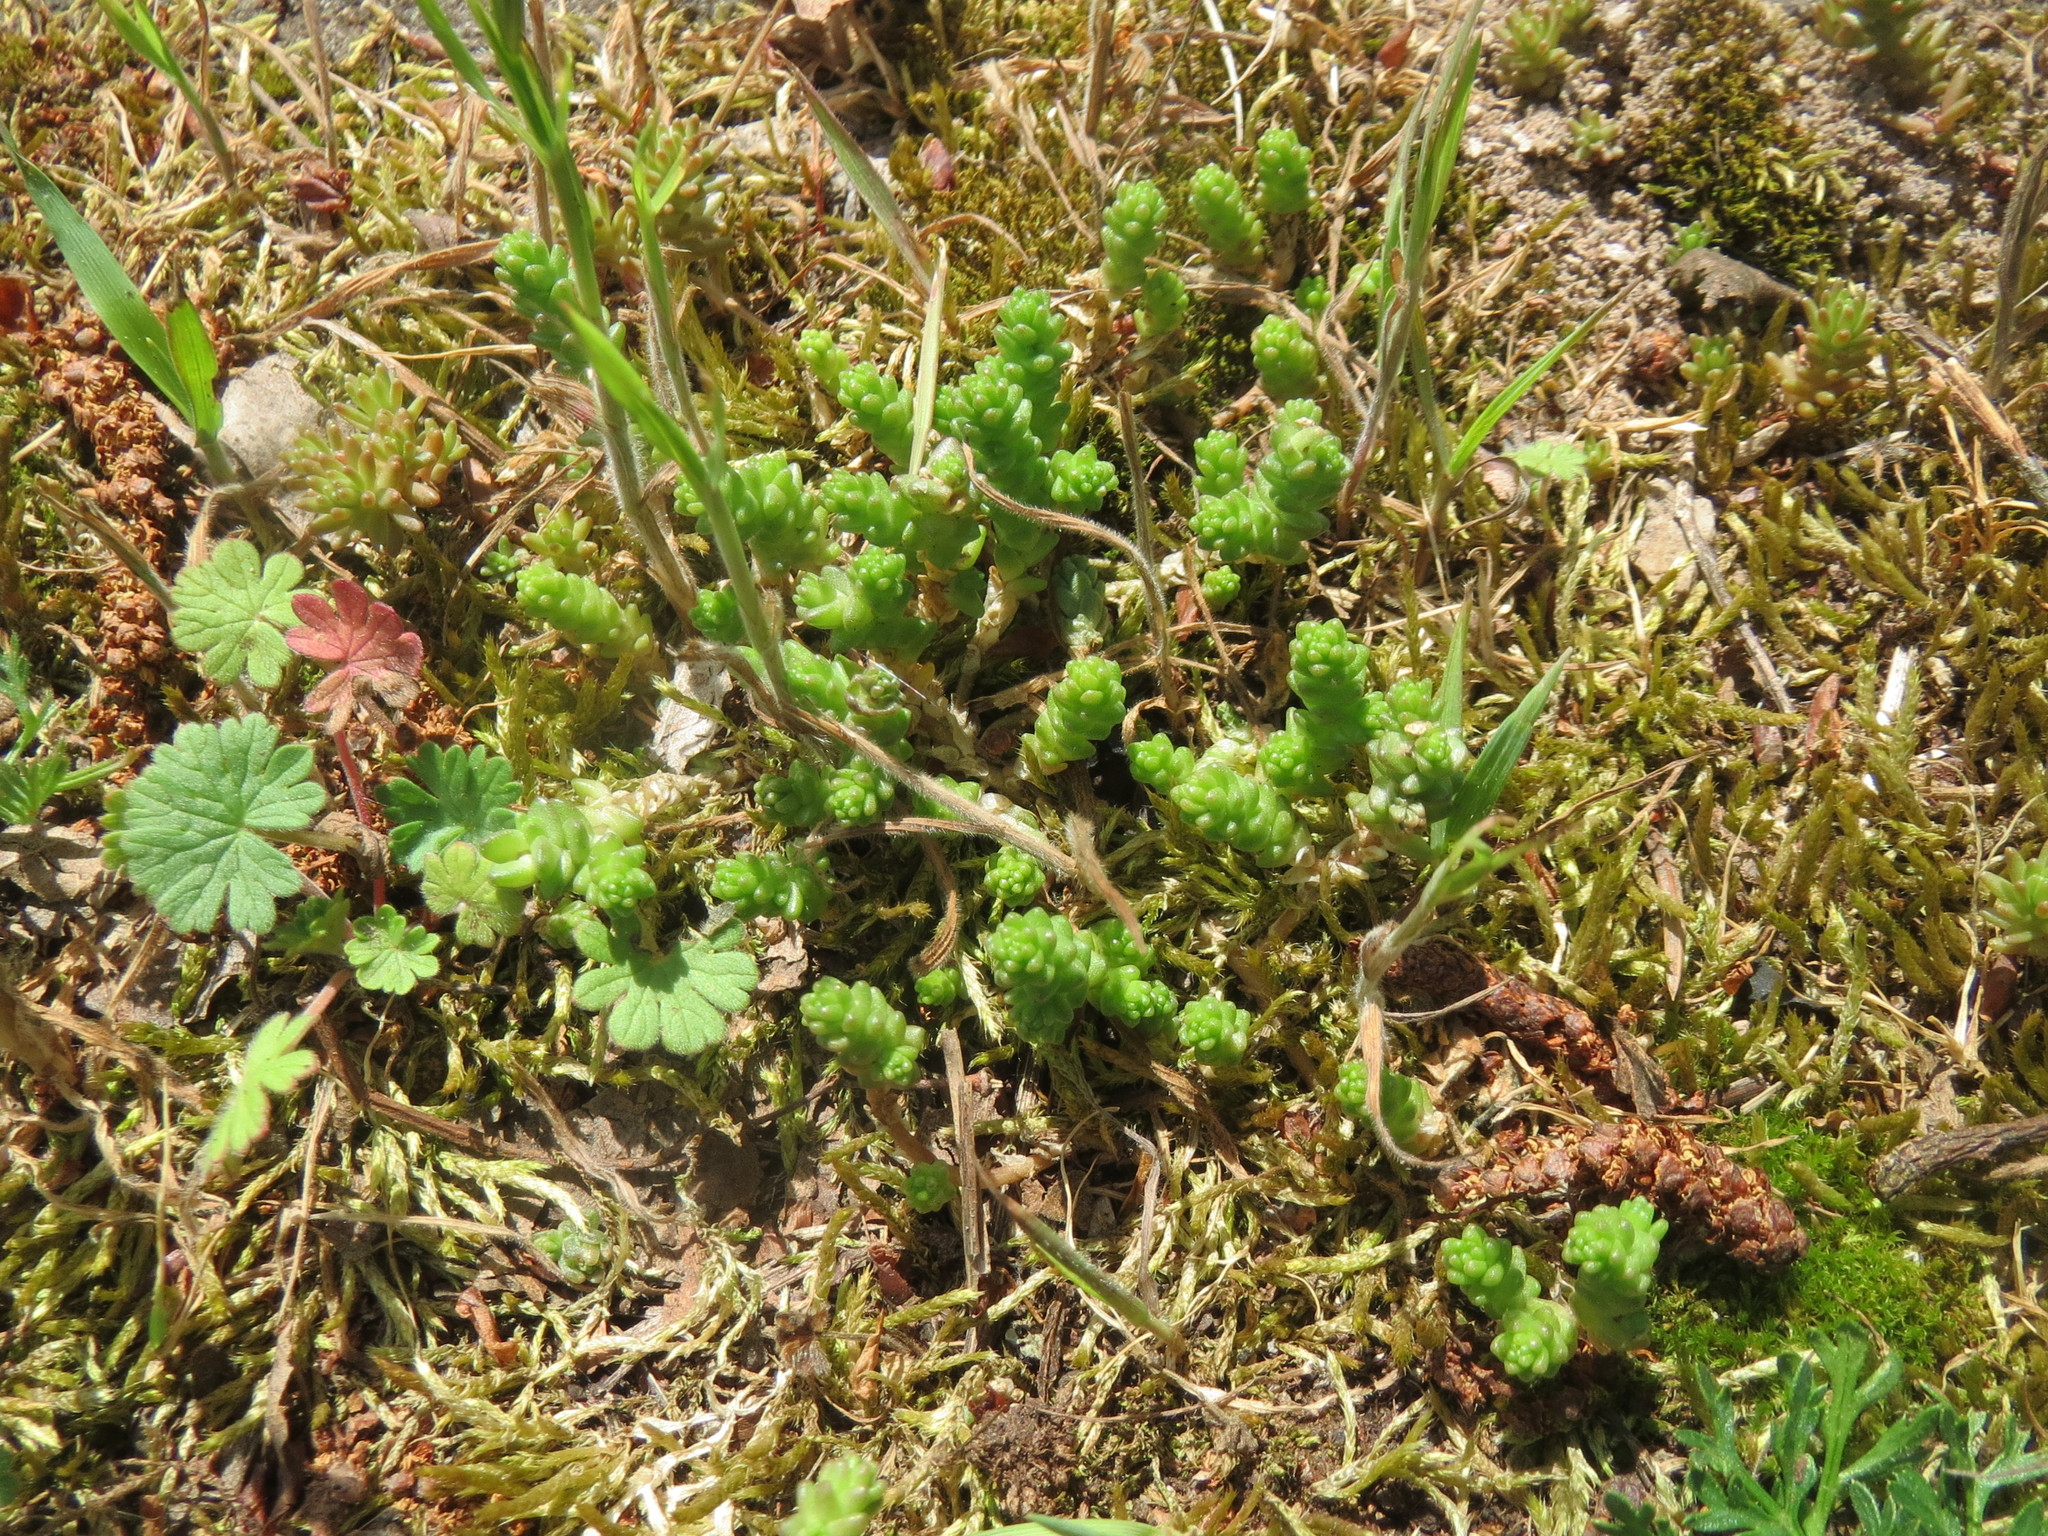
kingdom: Plantae
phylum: Tracheophyta
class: Magnoliopsida
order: Saxifragales
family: Crassulaceae
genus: Sedum
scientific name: Sedum acre
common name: Biting stonecrop
